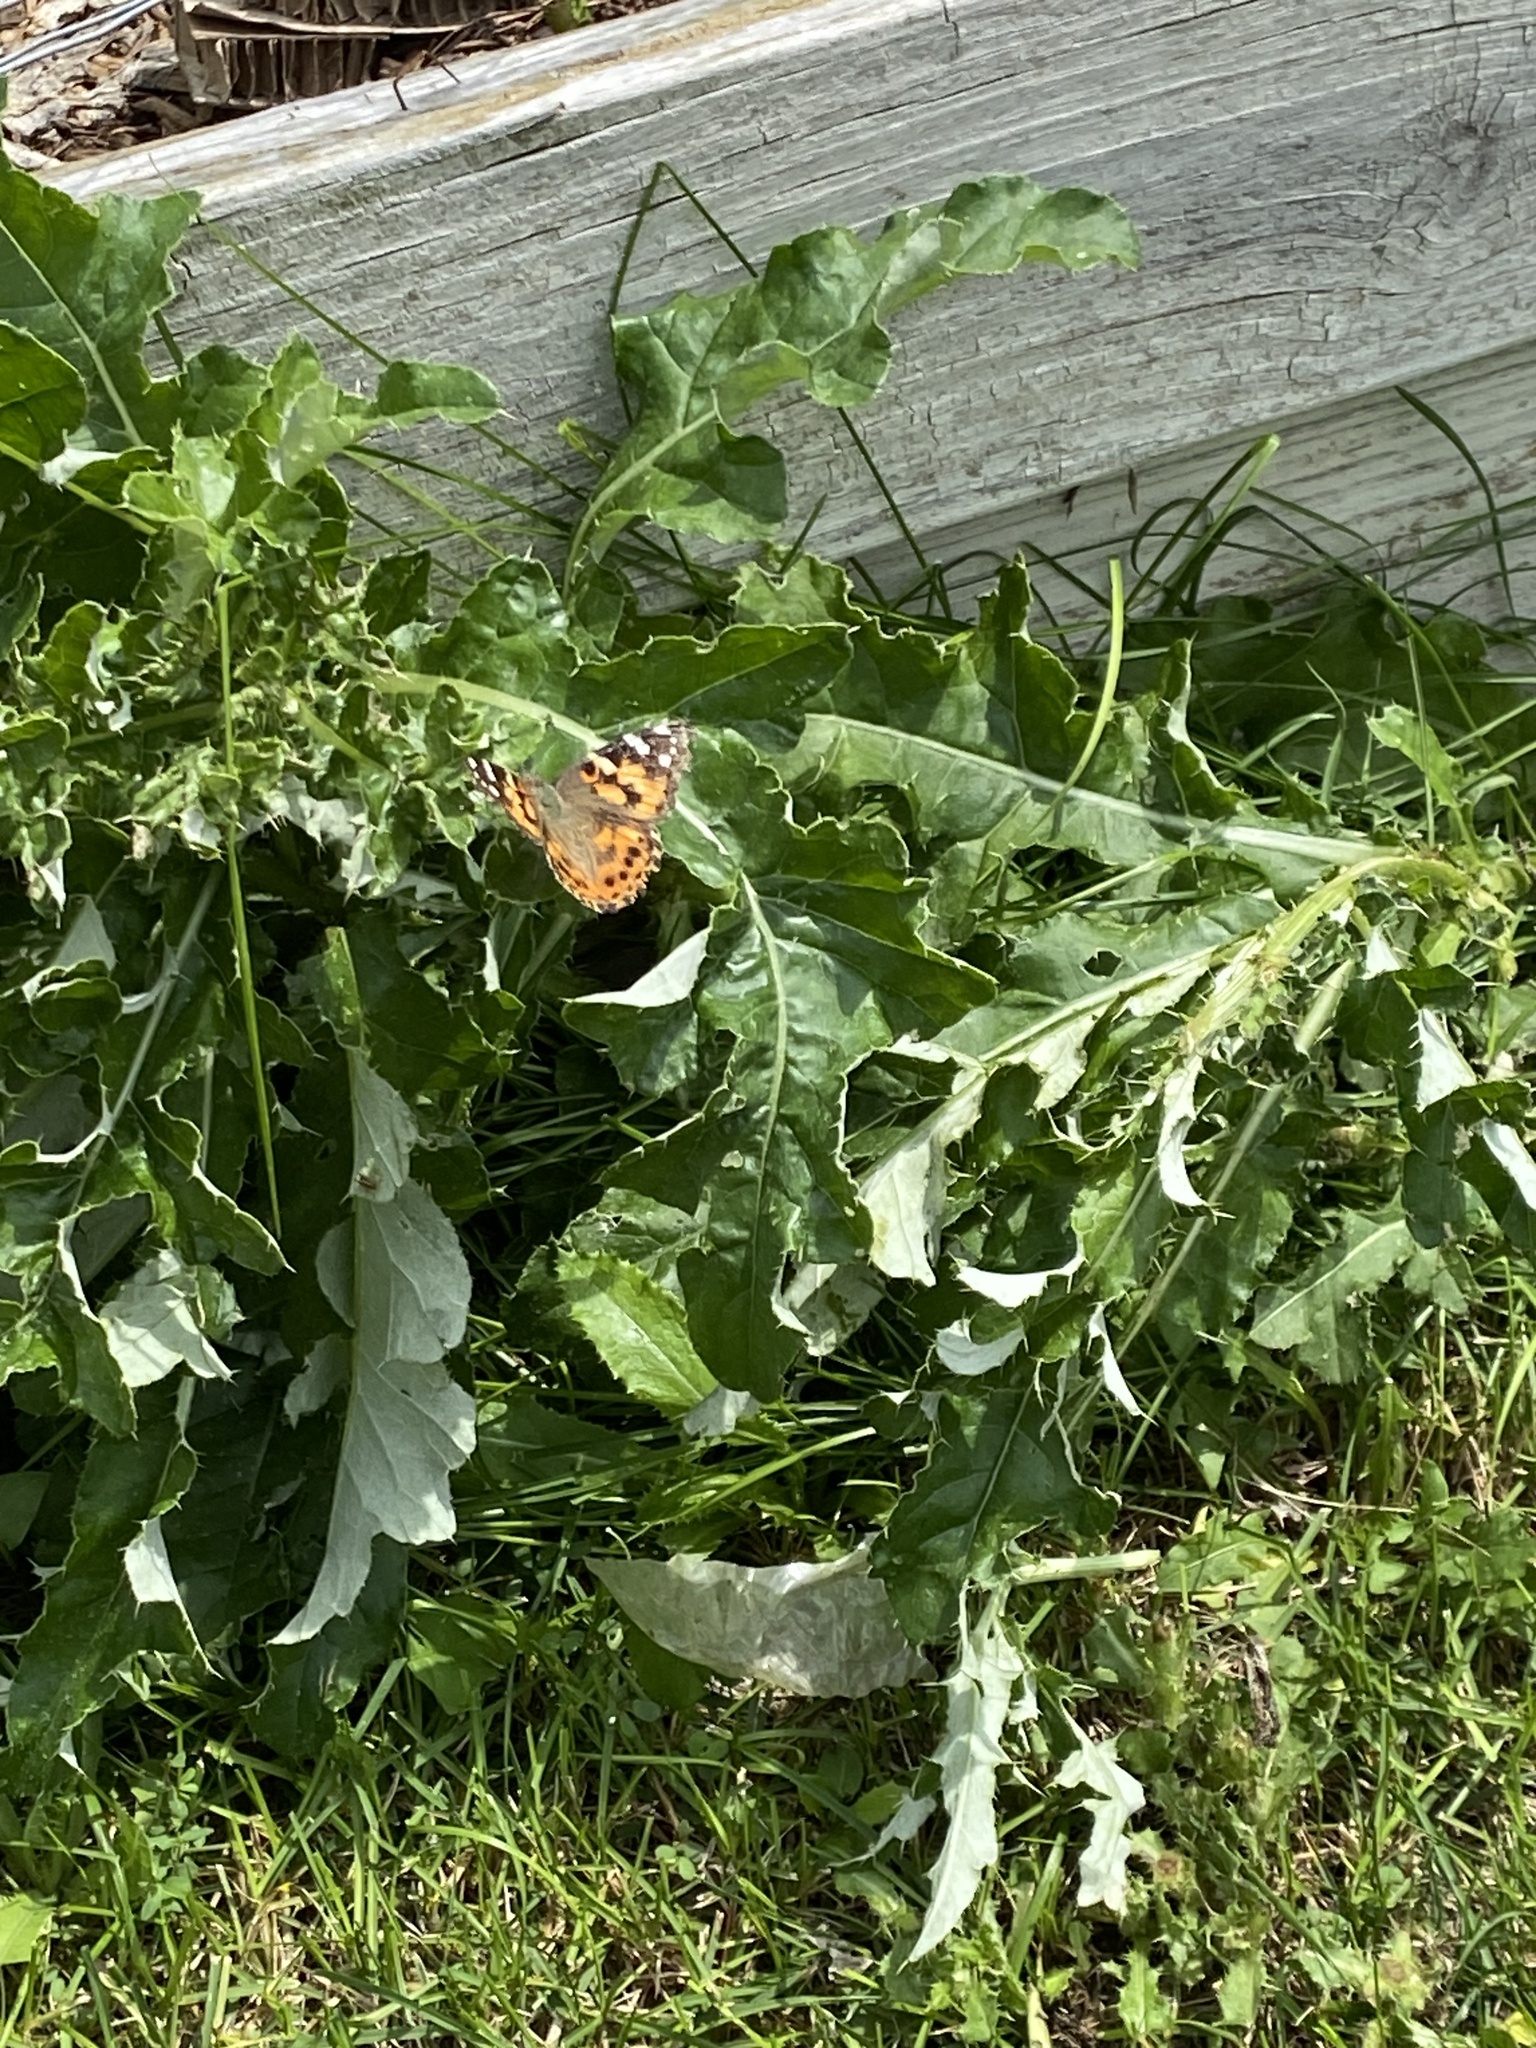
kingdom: Animalia
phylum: Arthropoda
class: Insecta
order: Lepidoptera
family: Nymphalidae
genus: Vanessa
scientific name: Vanessa cardui
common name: Painted lady
